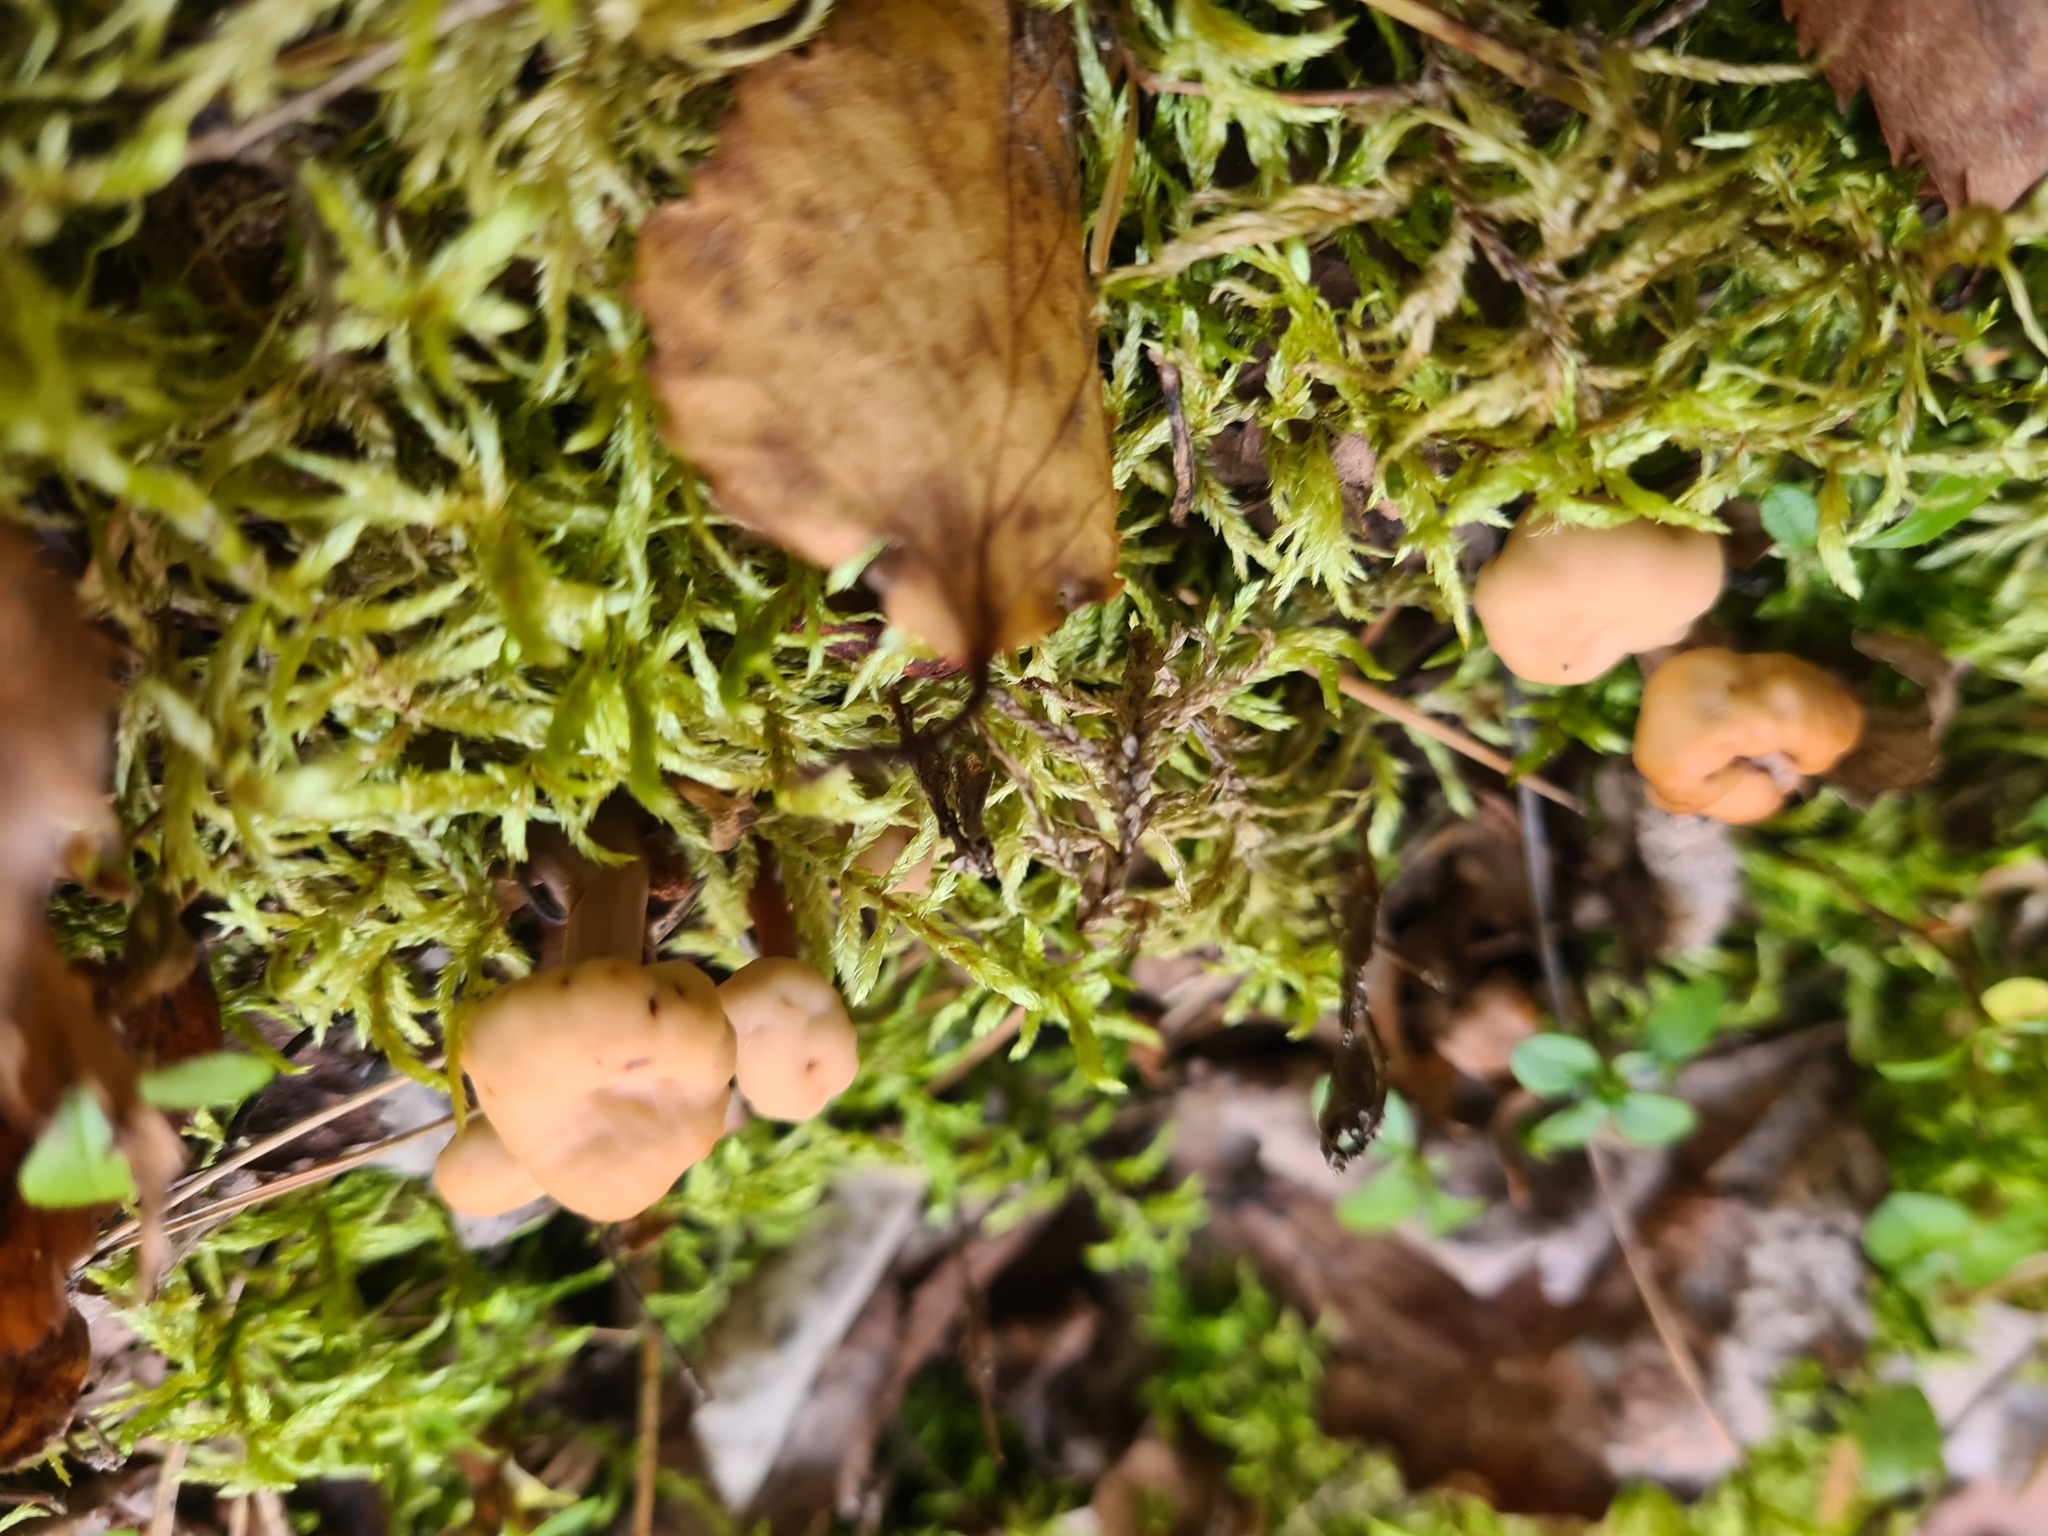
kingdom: Fungi
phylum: Ascomycota
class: Leotiomycetes
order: Rhytismatales
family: Cudoniaceae
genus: Cudonia
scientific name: Cudonia circinans
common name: Redleg jellybaby
